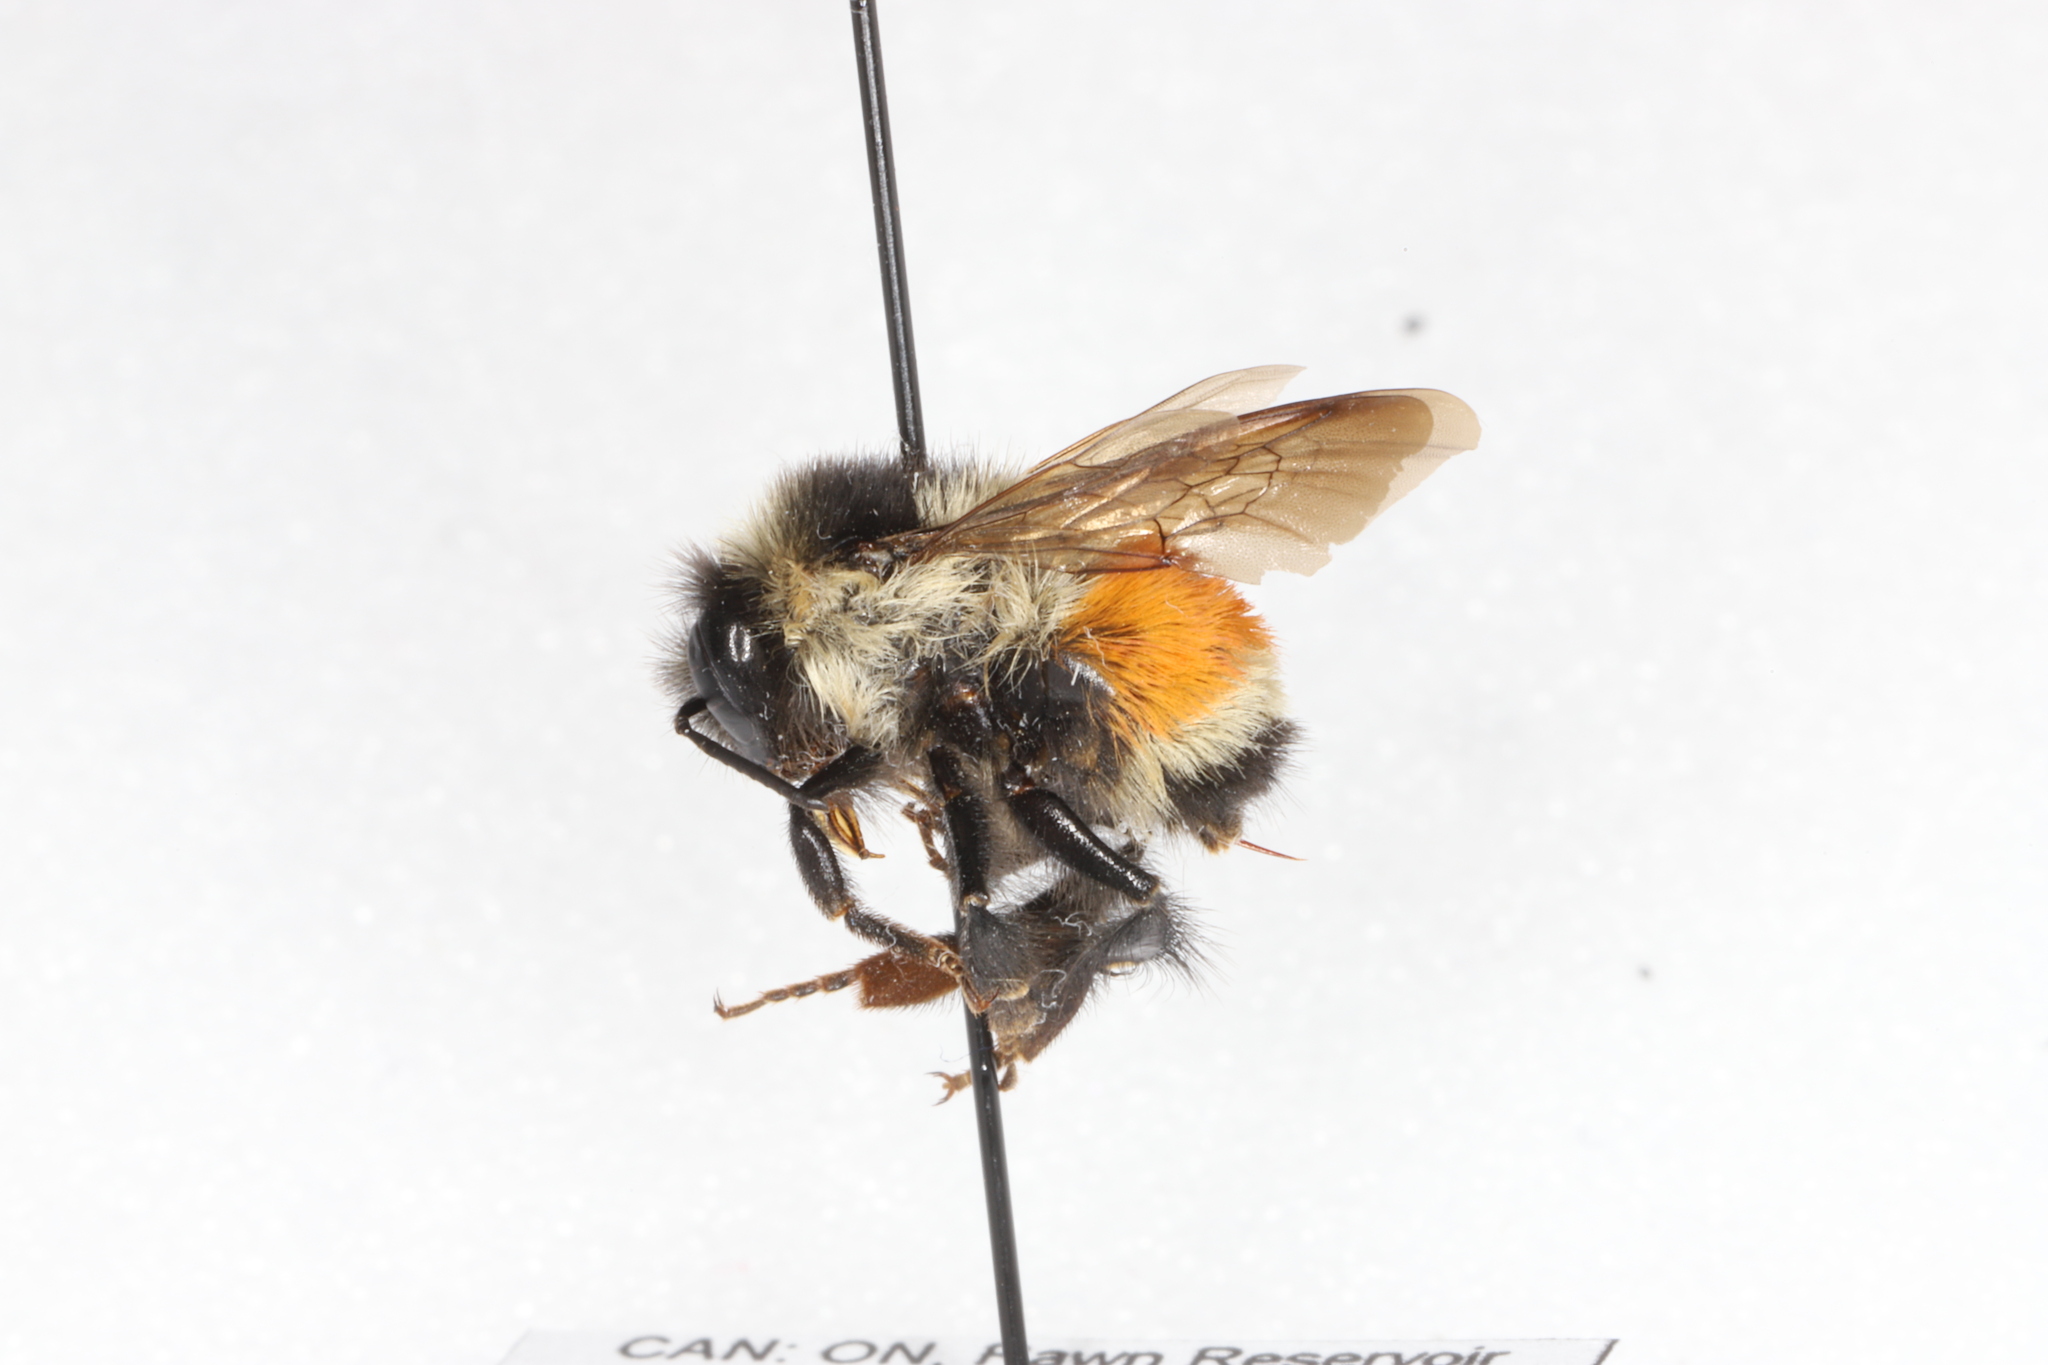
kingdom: Animalia
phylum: Arthropoda
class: Insecta
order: Hymenoptera
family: Apidae
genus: Bombus
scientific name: Bombus ternarius
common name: Tri-colored bumble bee
